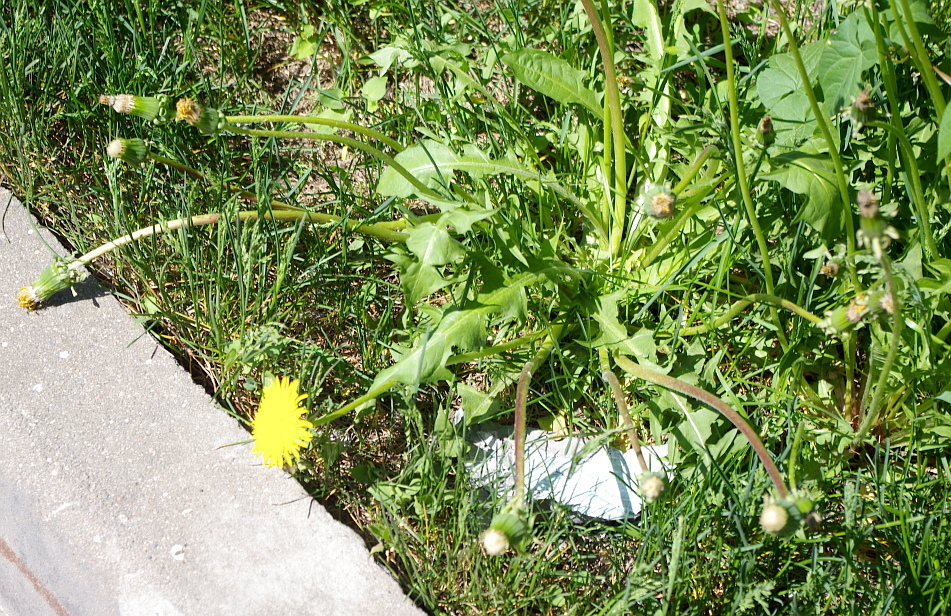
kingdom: Plantae
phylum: Tracheophyta
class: Magnoliopsida
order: Asterales
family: Asteraceae
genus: Taraxacum
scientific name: Taraxacum officinale
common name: Common dandelion
